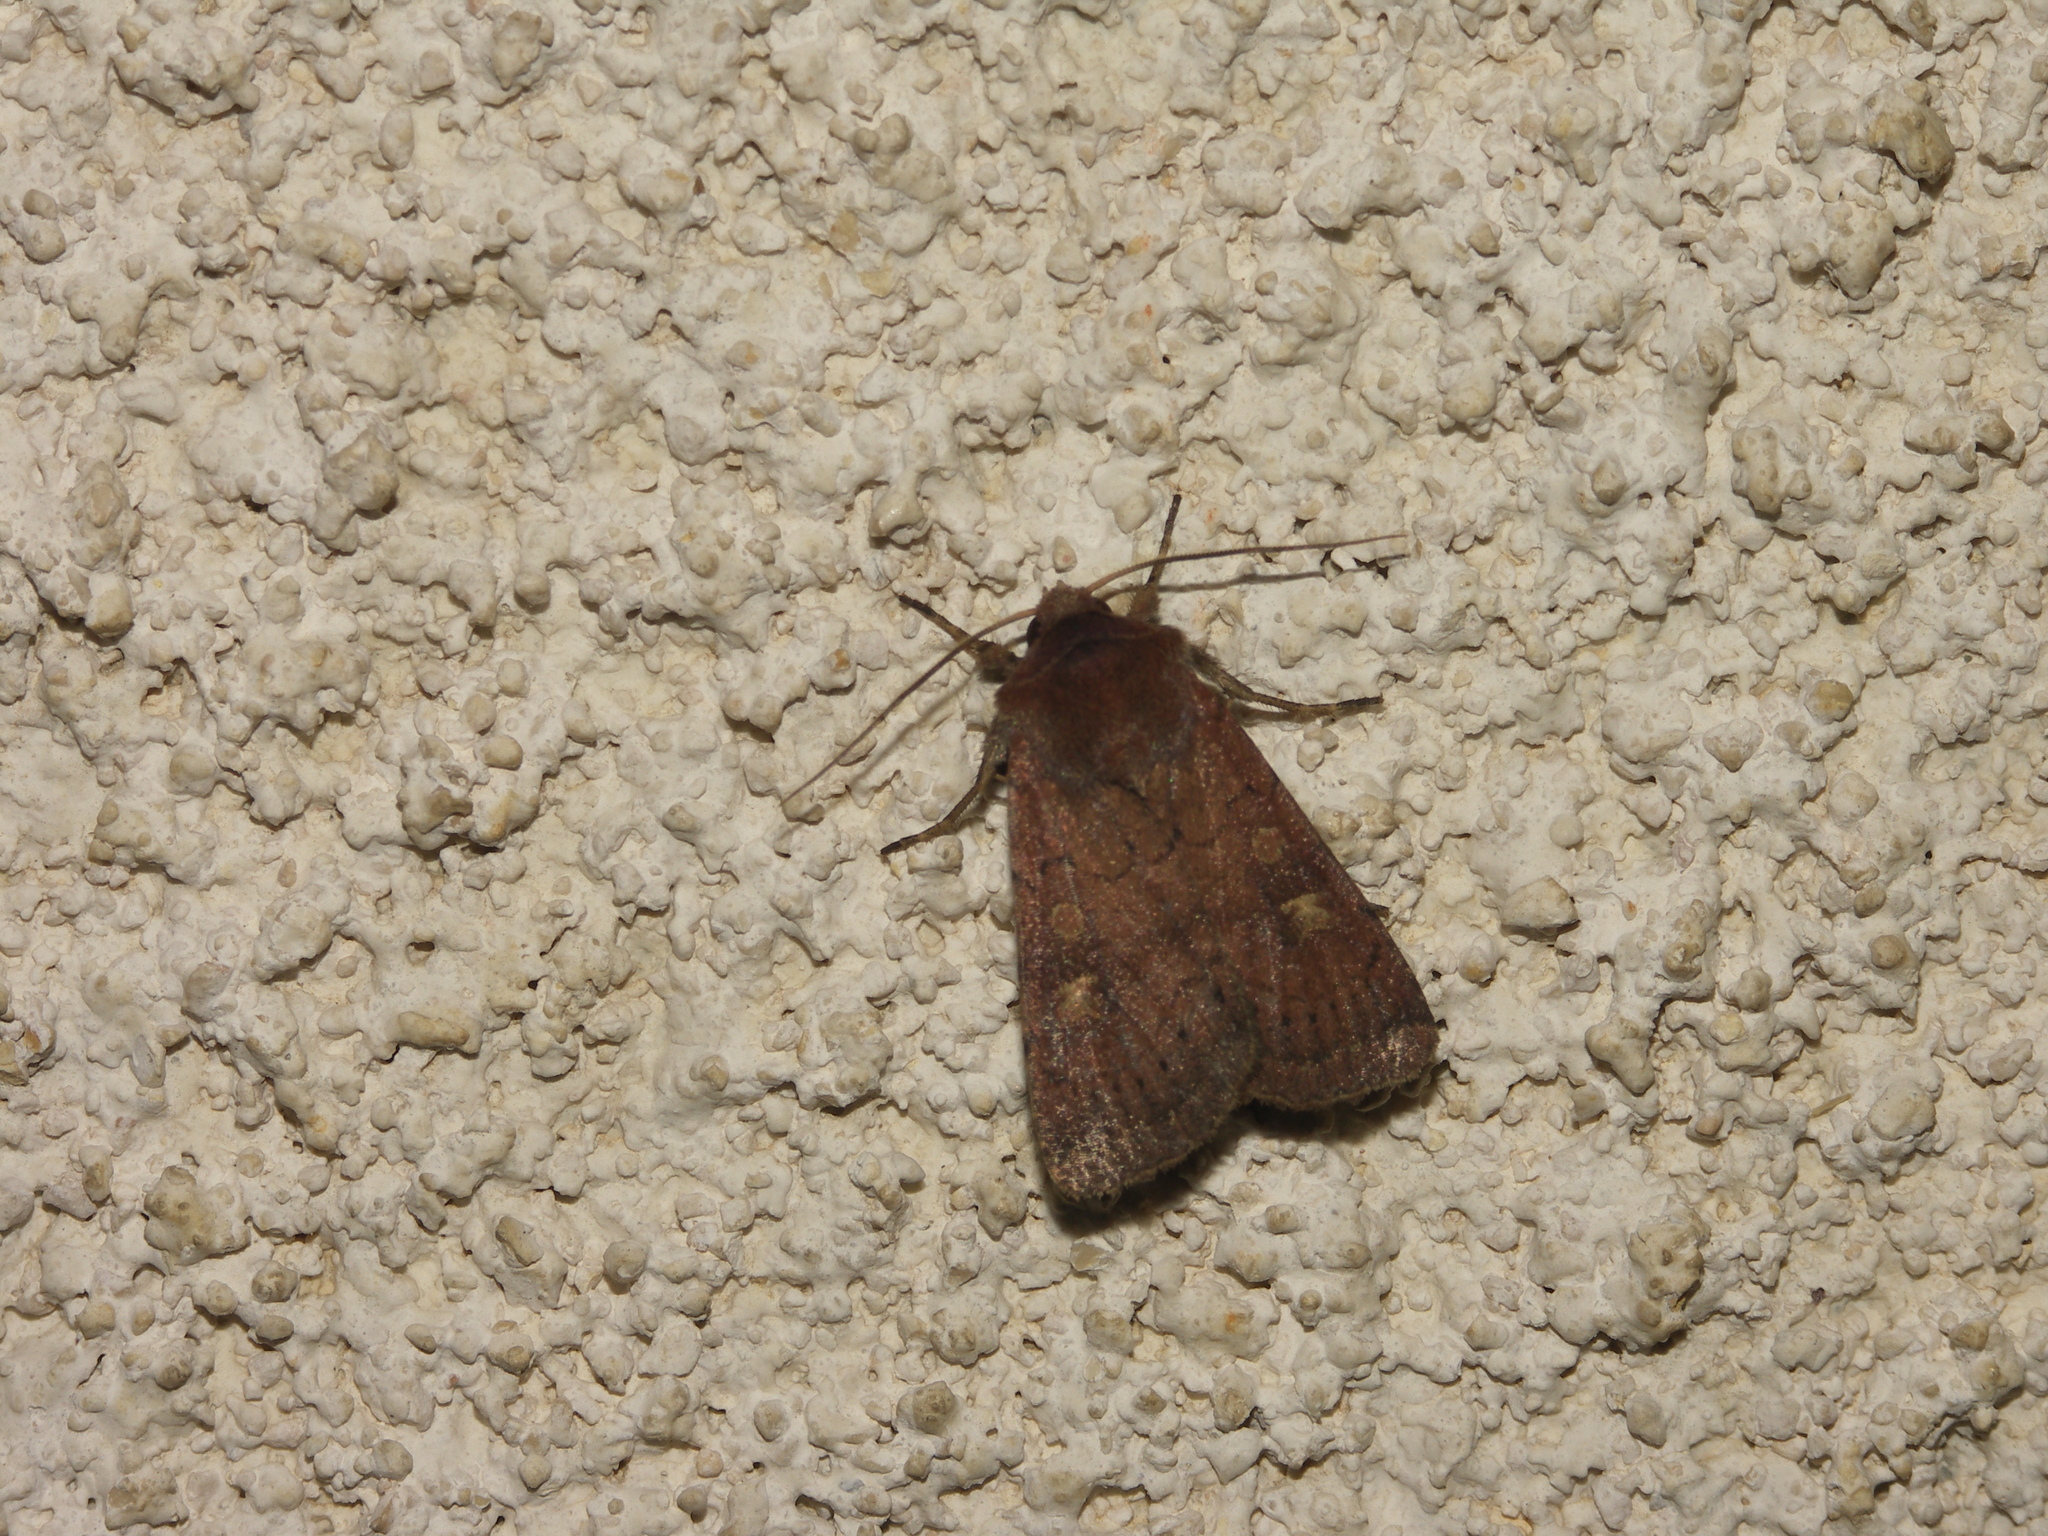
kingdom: Animalia
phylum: Arthropoda
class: Insecta
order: Lepidoptera
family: Noctuidae
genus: Xestia
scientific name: Xestia xanthographa
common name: Square-spot rustic
